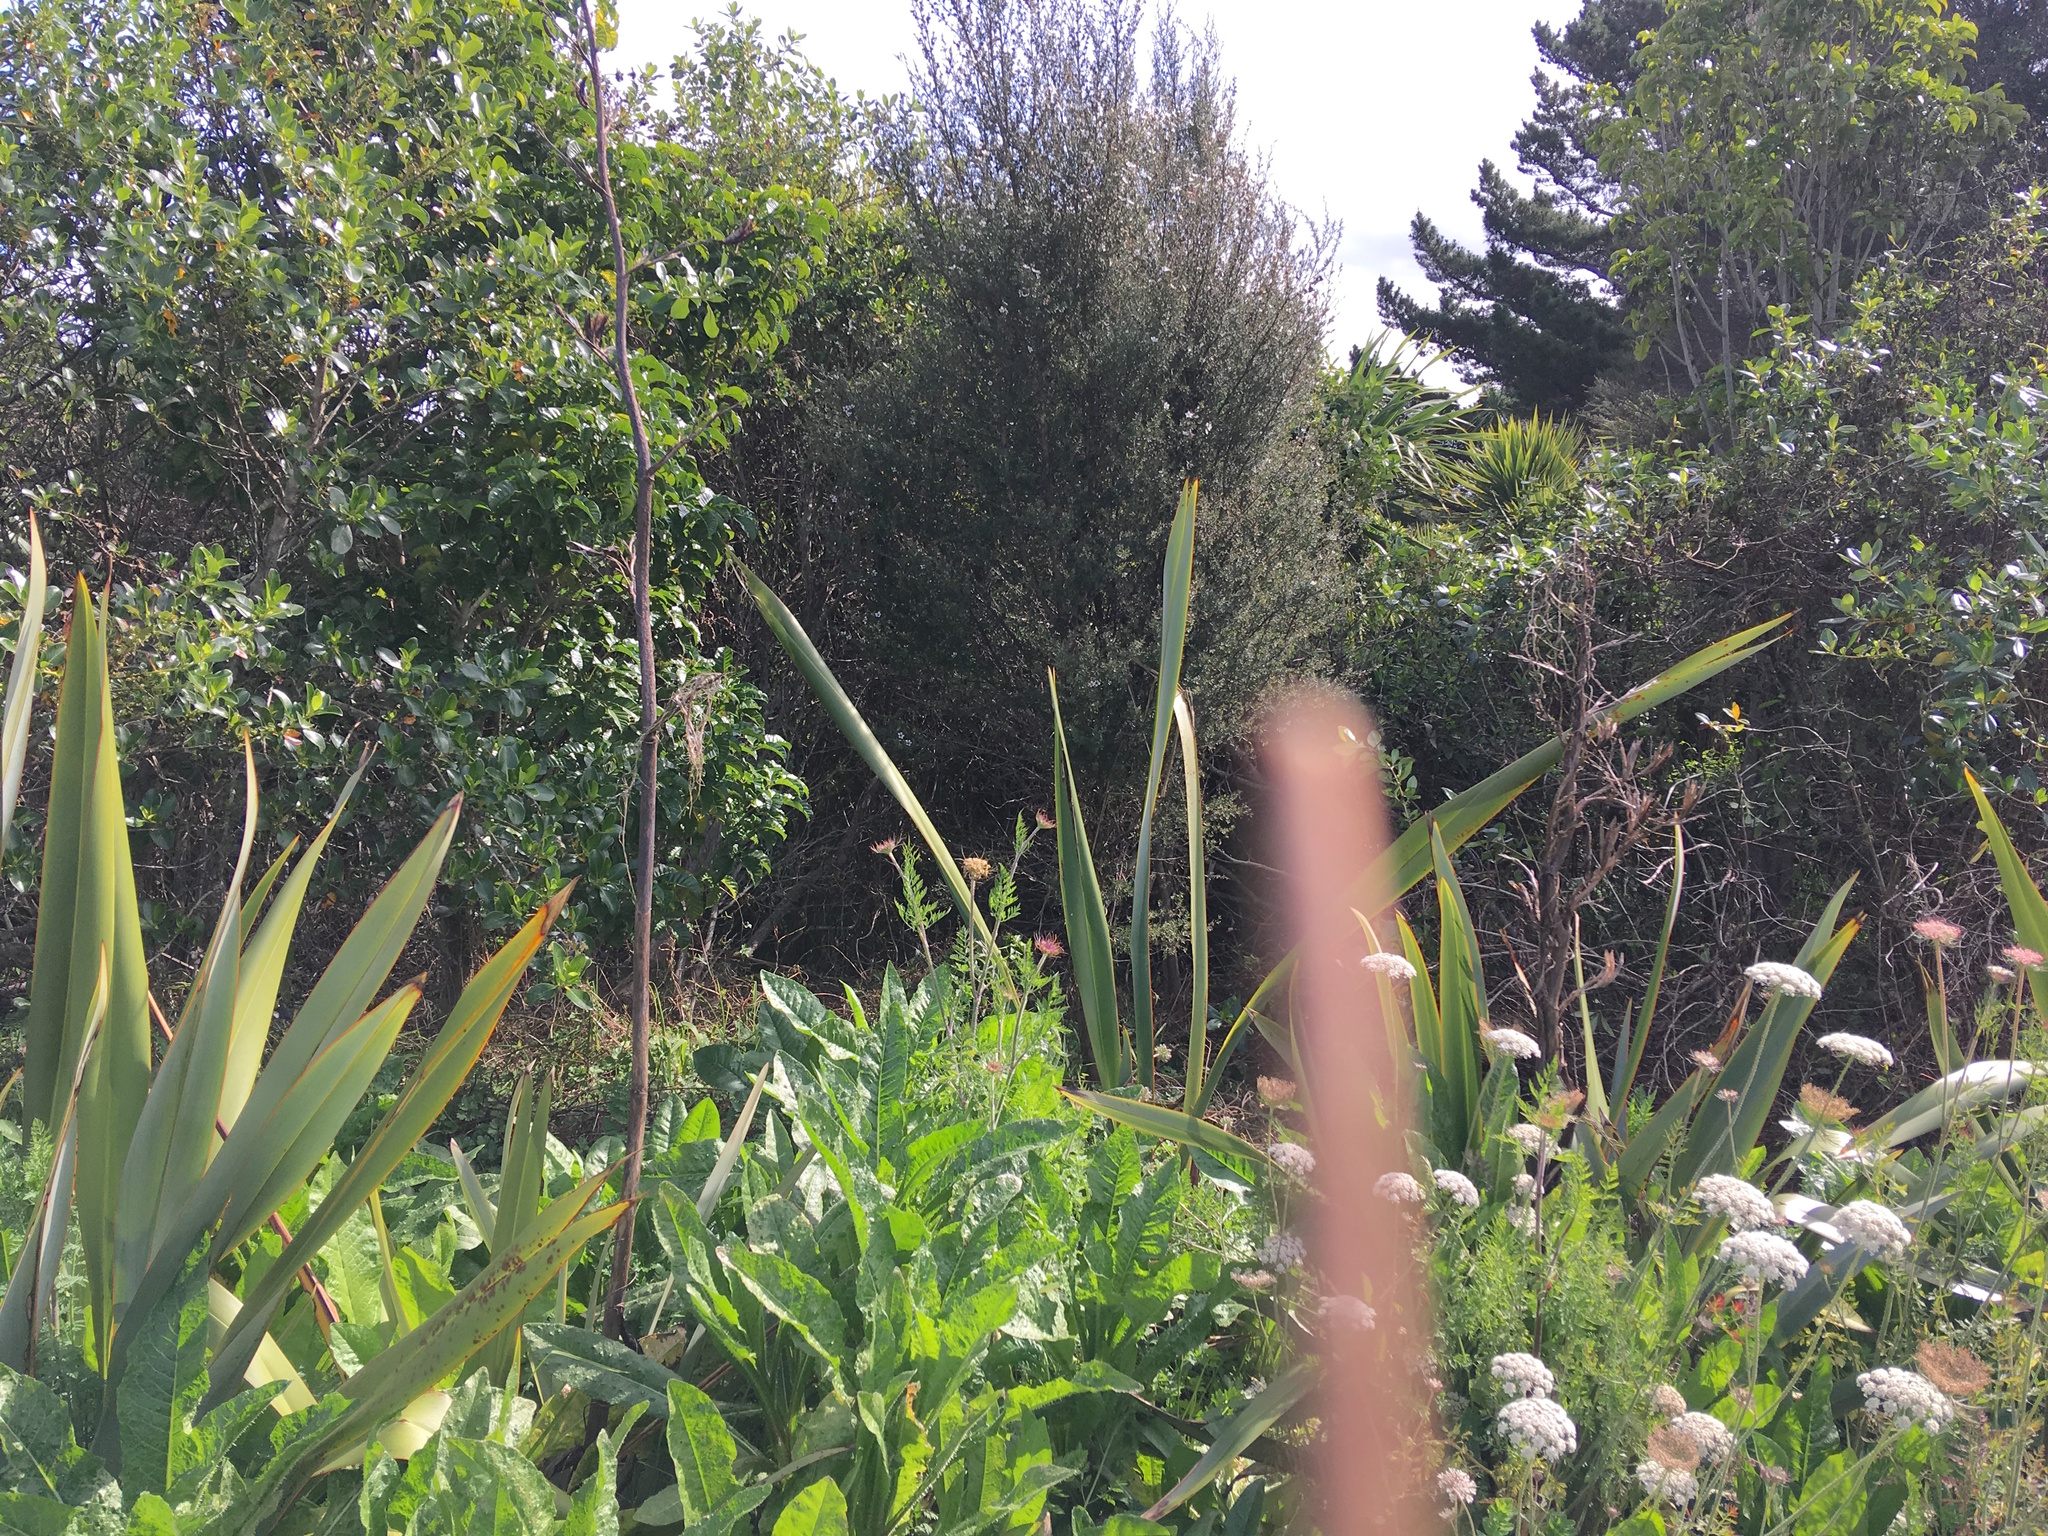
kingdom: Plantae
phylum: Tracheophyta
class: Magnoliopsida
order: Apiales
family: Apiaceae
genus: Daucus
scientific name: Daucus carota
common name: Wild carrot
